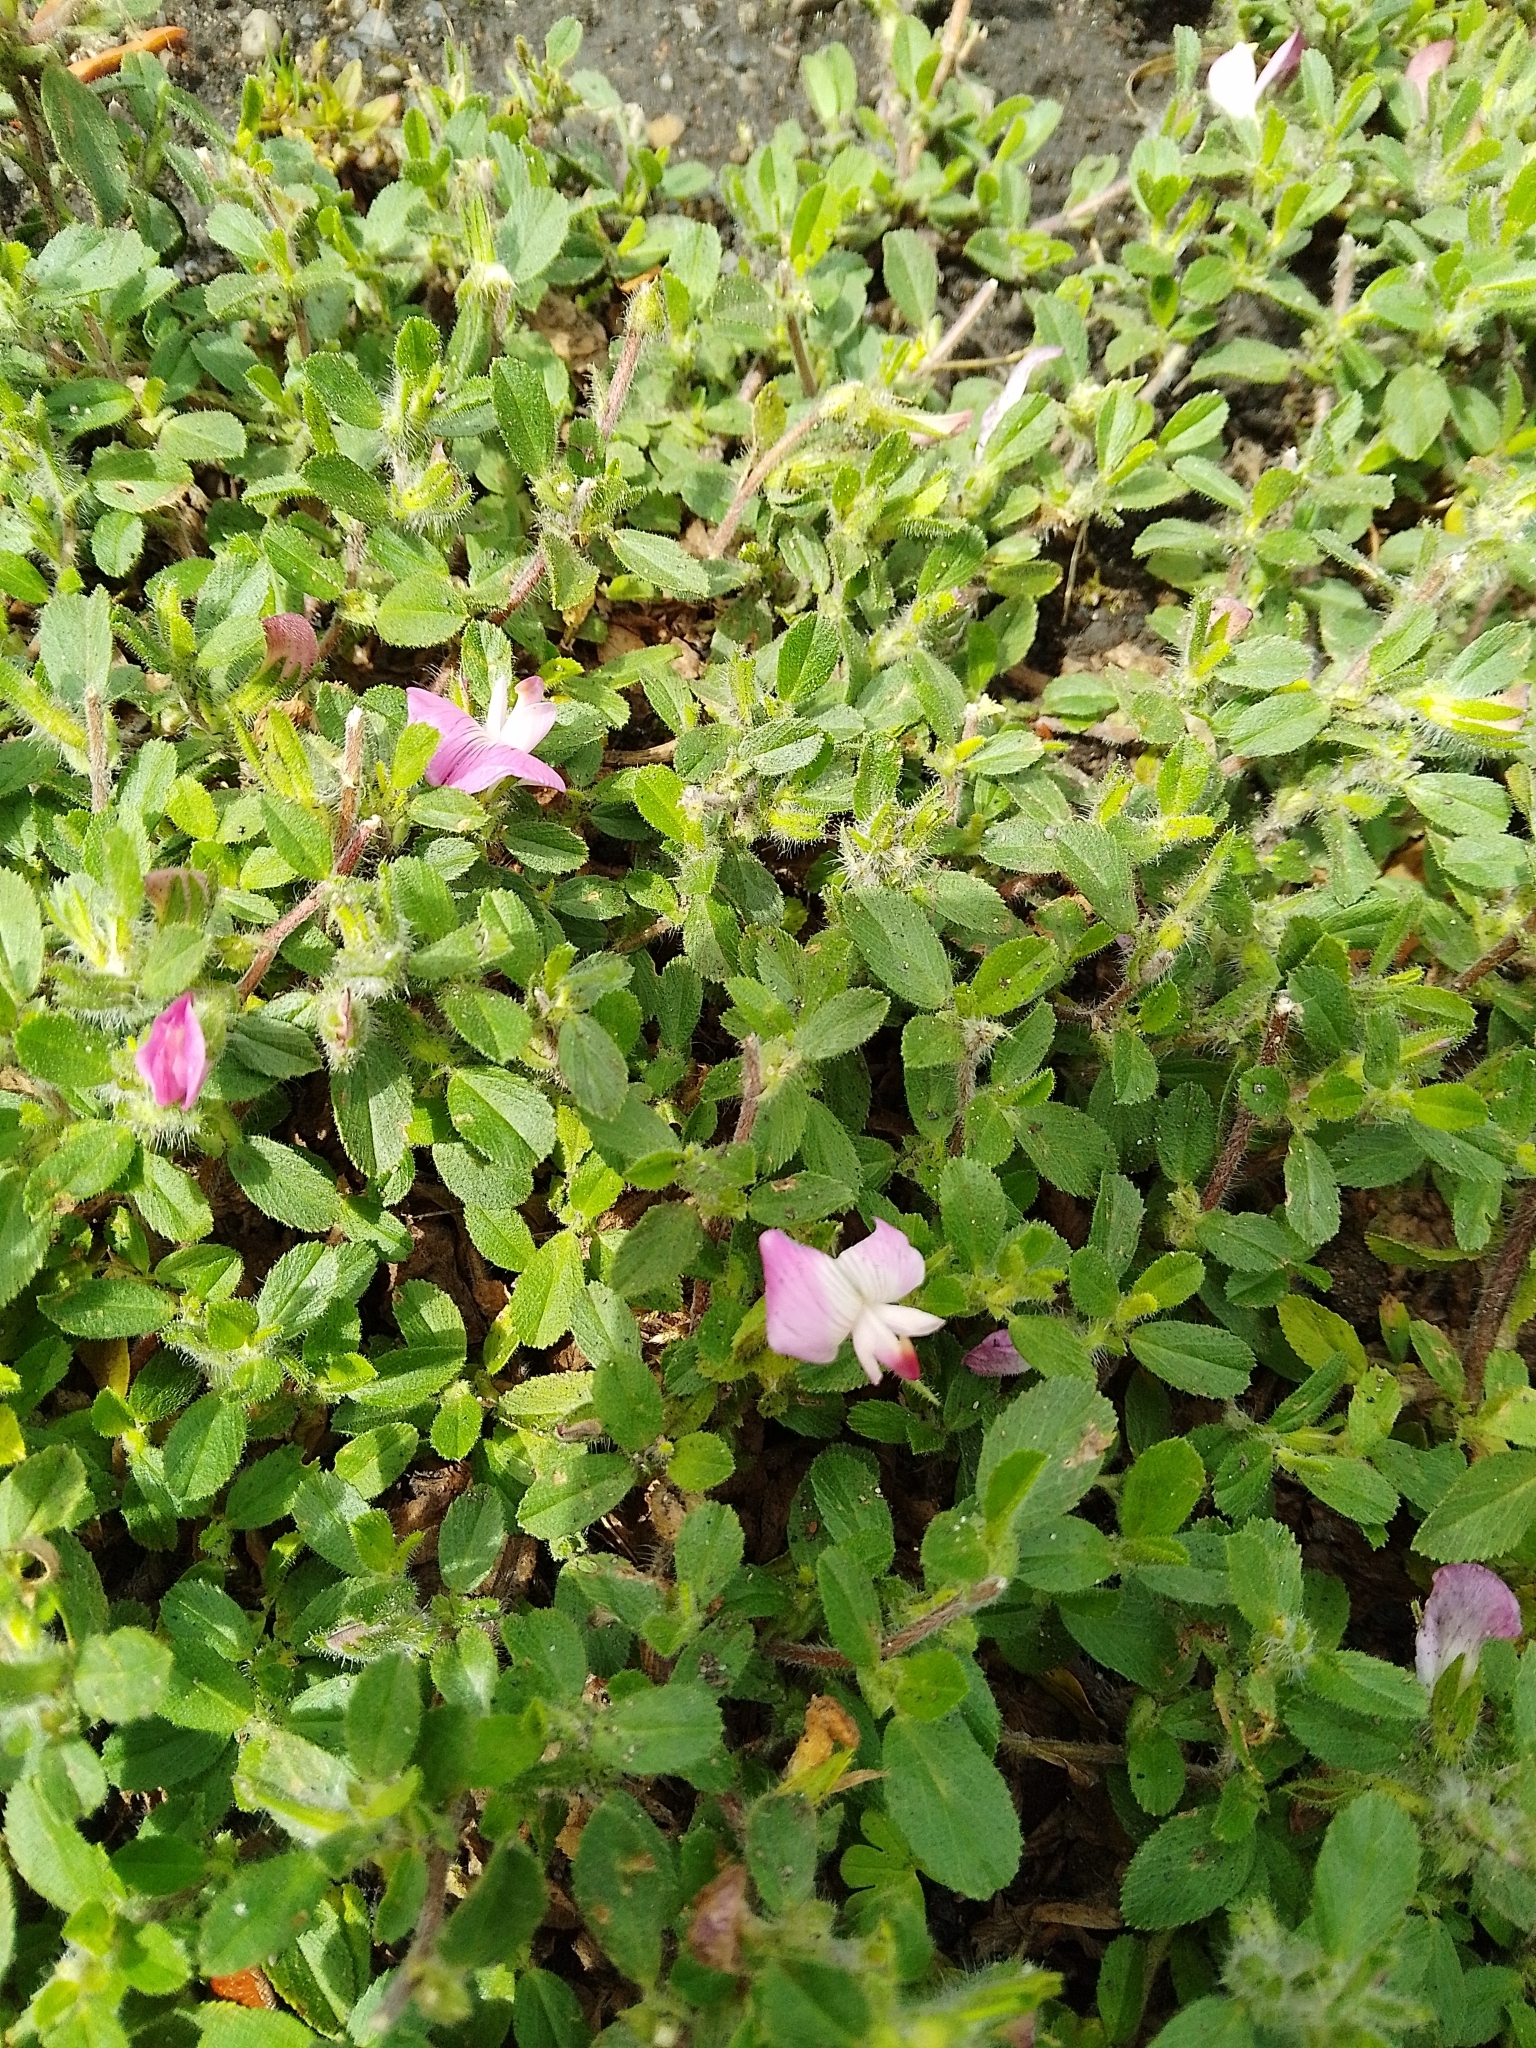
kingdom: Plantae
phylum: Tracheophyta
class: Magnoliopsida
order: Fabales
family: Fabaceae
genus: Ononis
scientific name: Ononis spinosa
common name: Spiny restharrow
